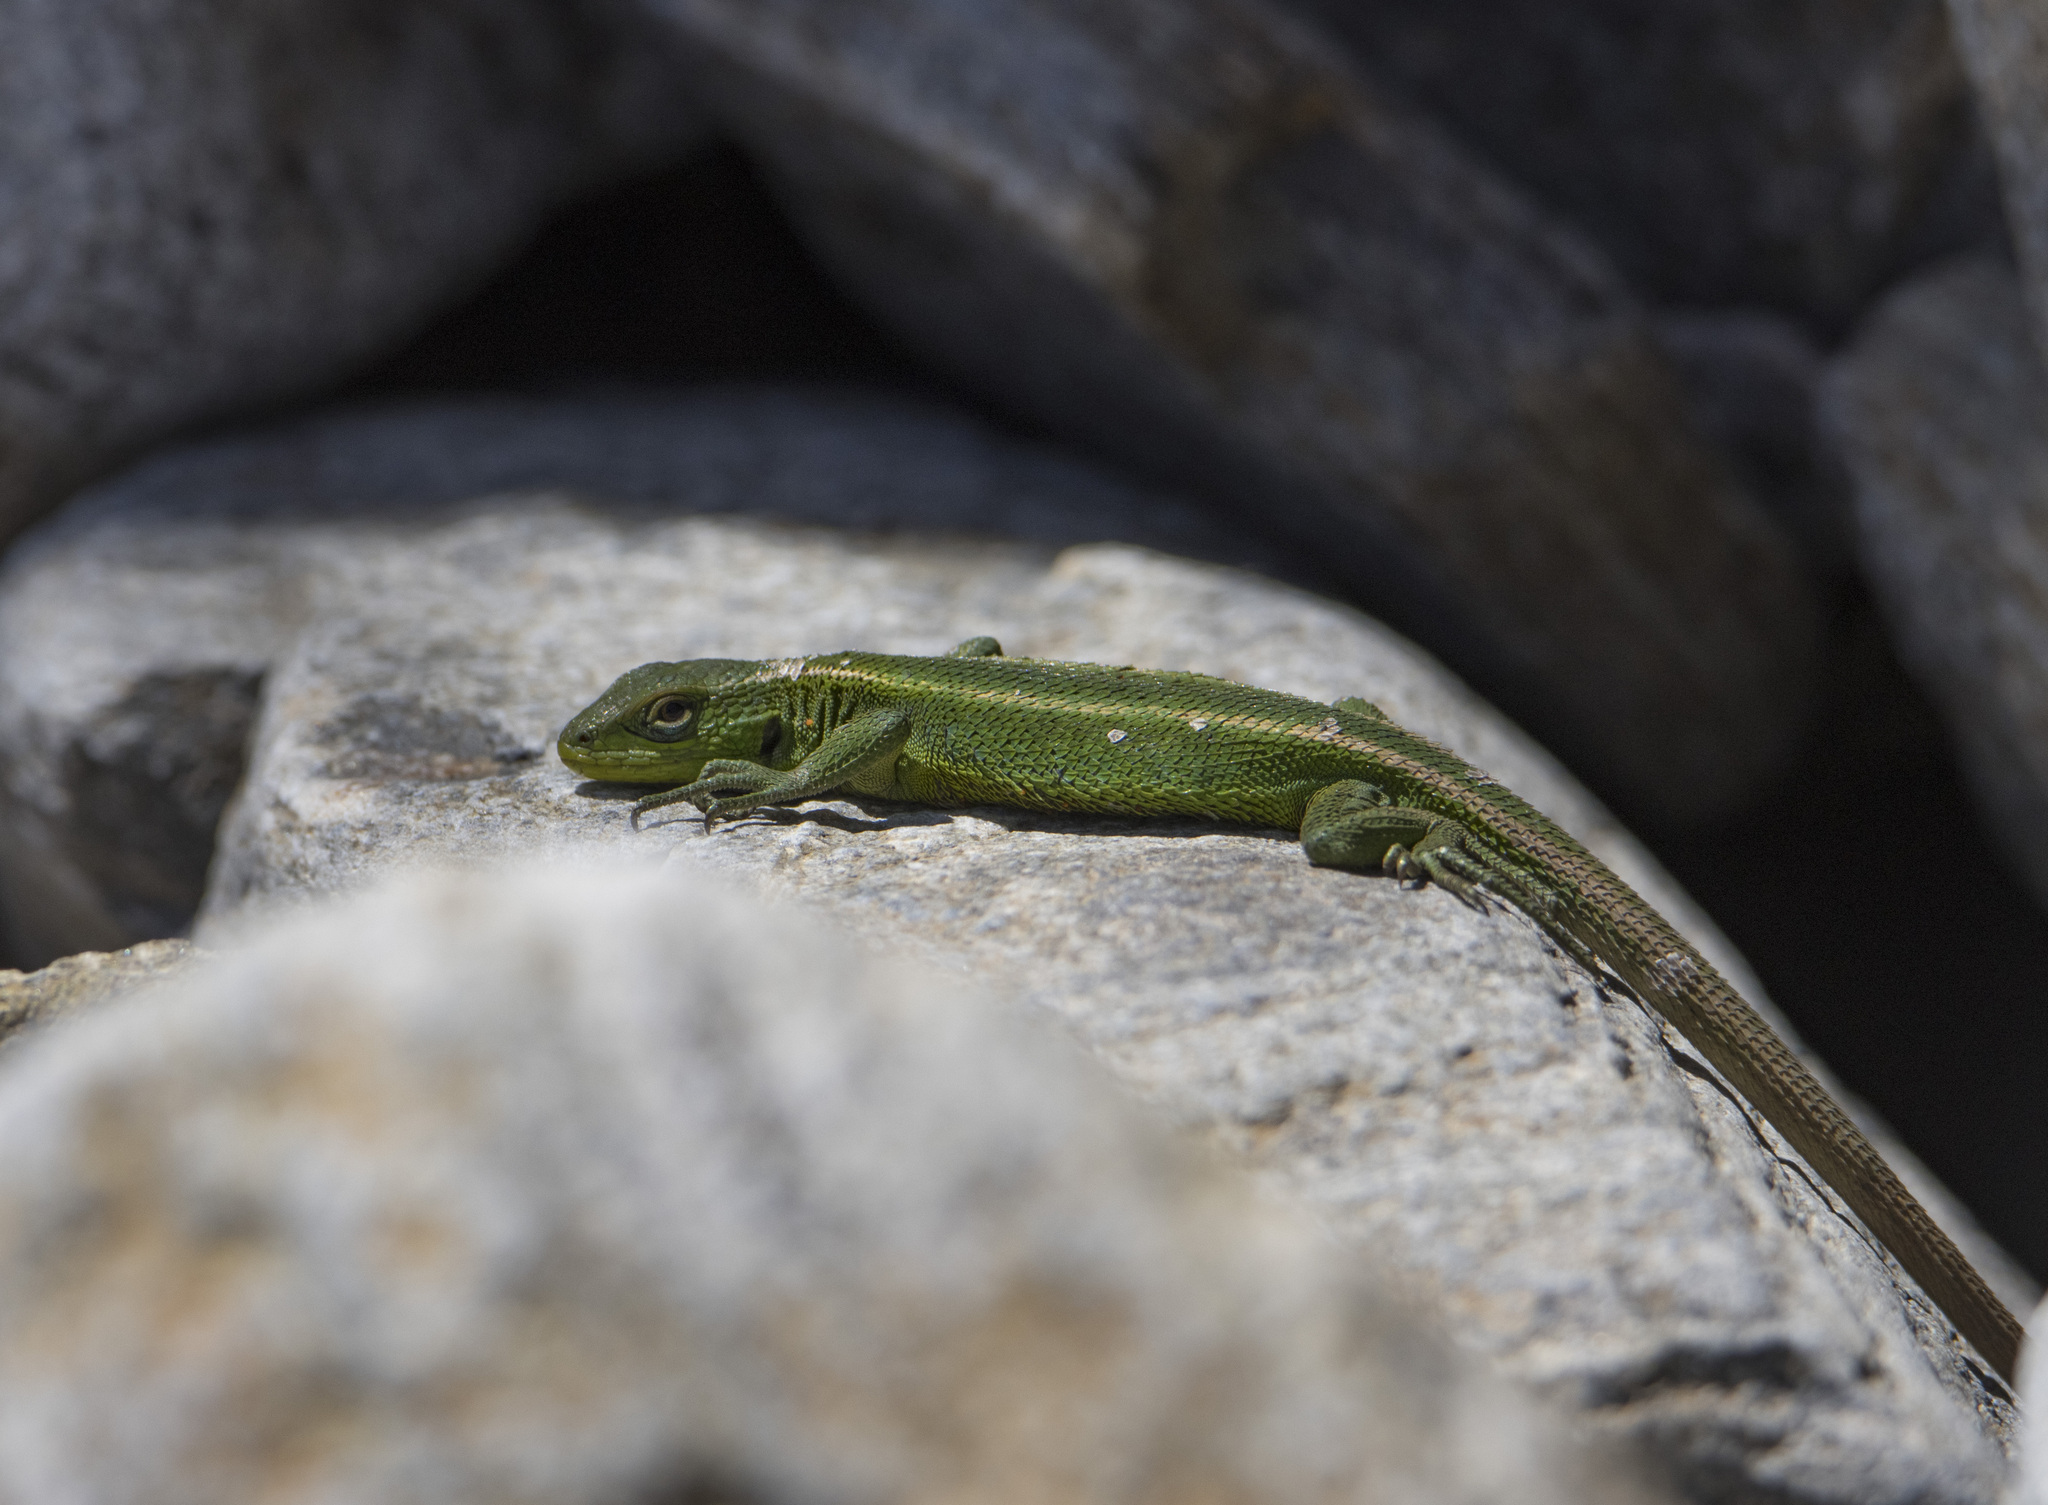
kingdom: Animalia
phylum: Chordata
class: Squamata
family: Liolaemidae
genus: Liolaemus
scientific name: Liolaemus cyanogaster
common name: Cyan tree iguana
